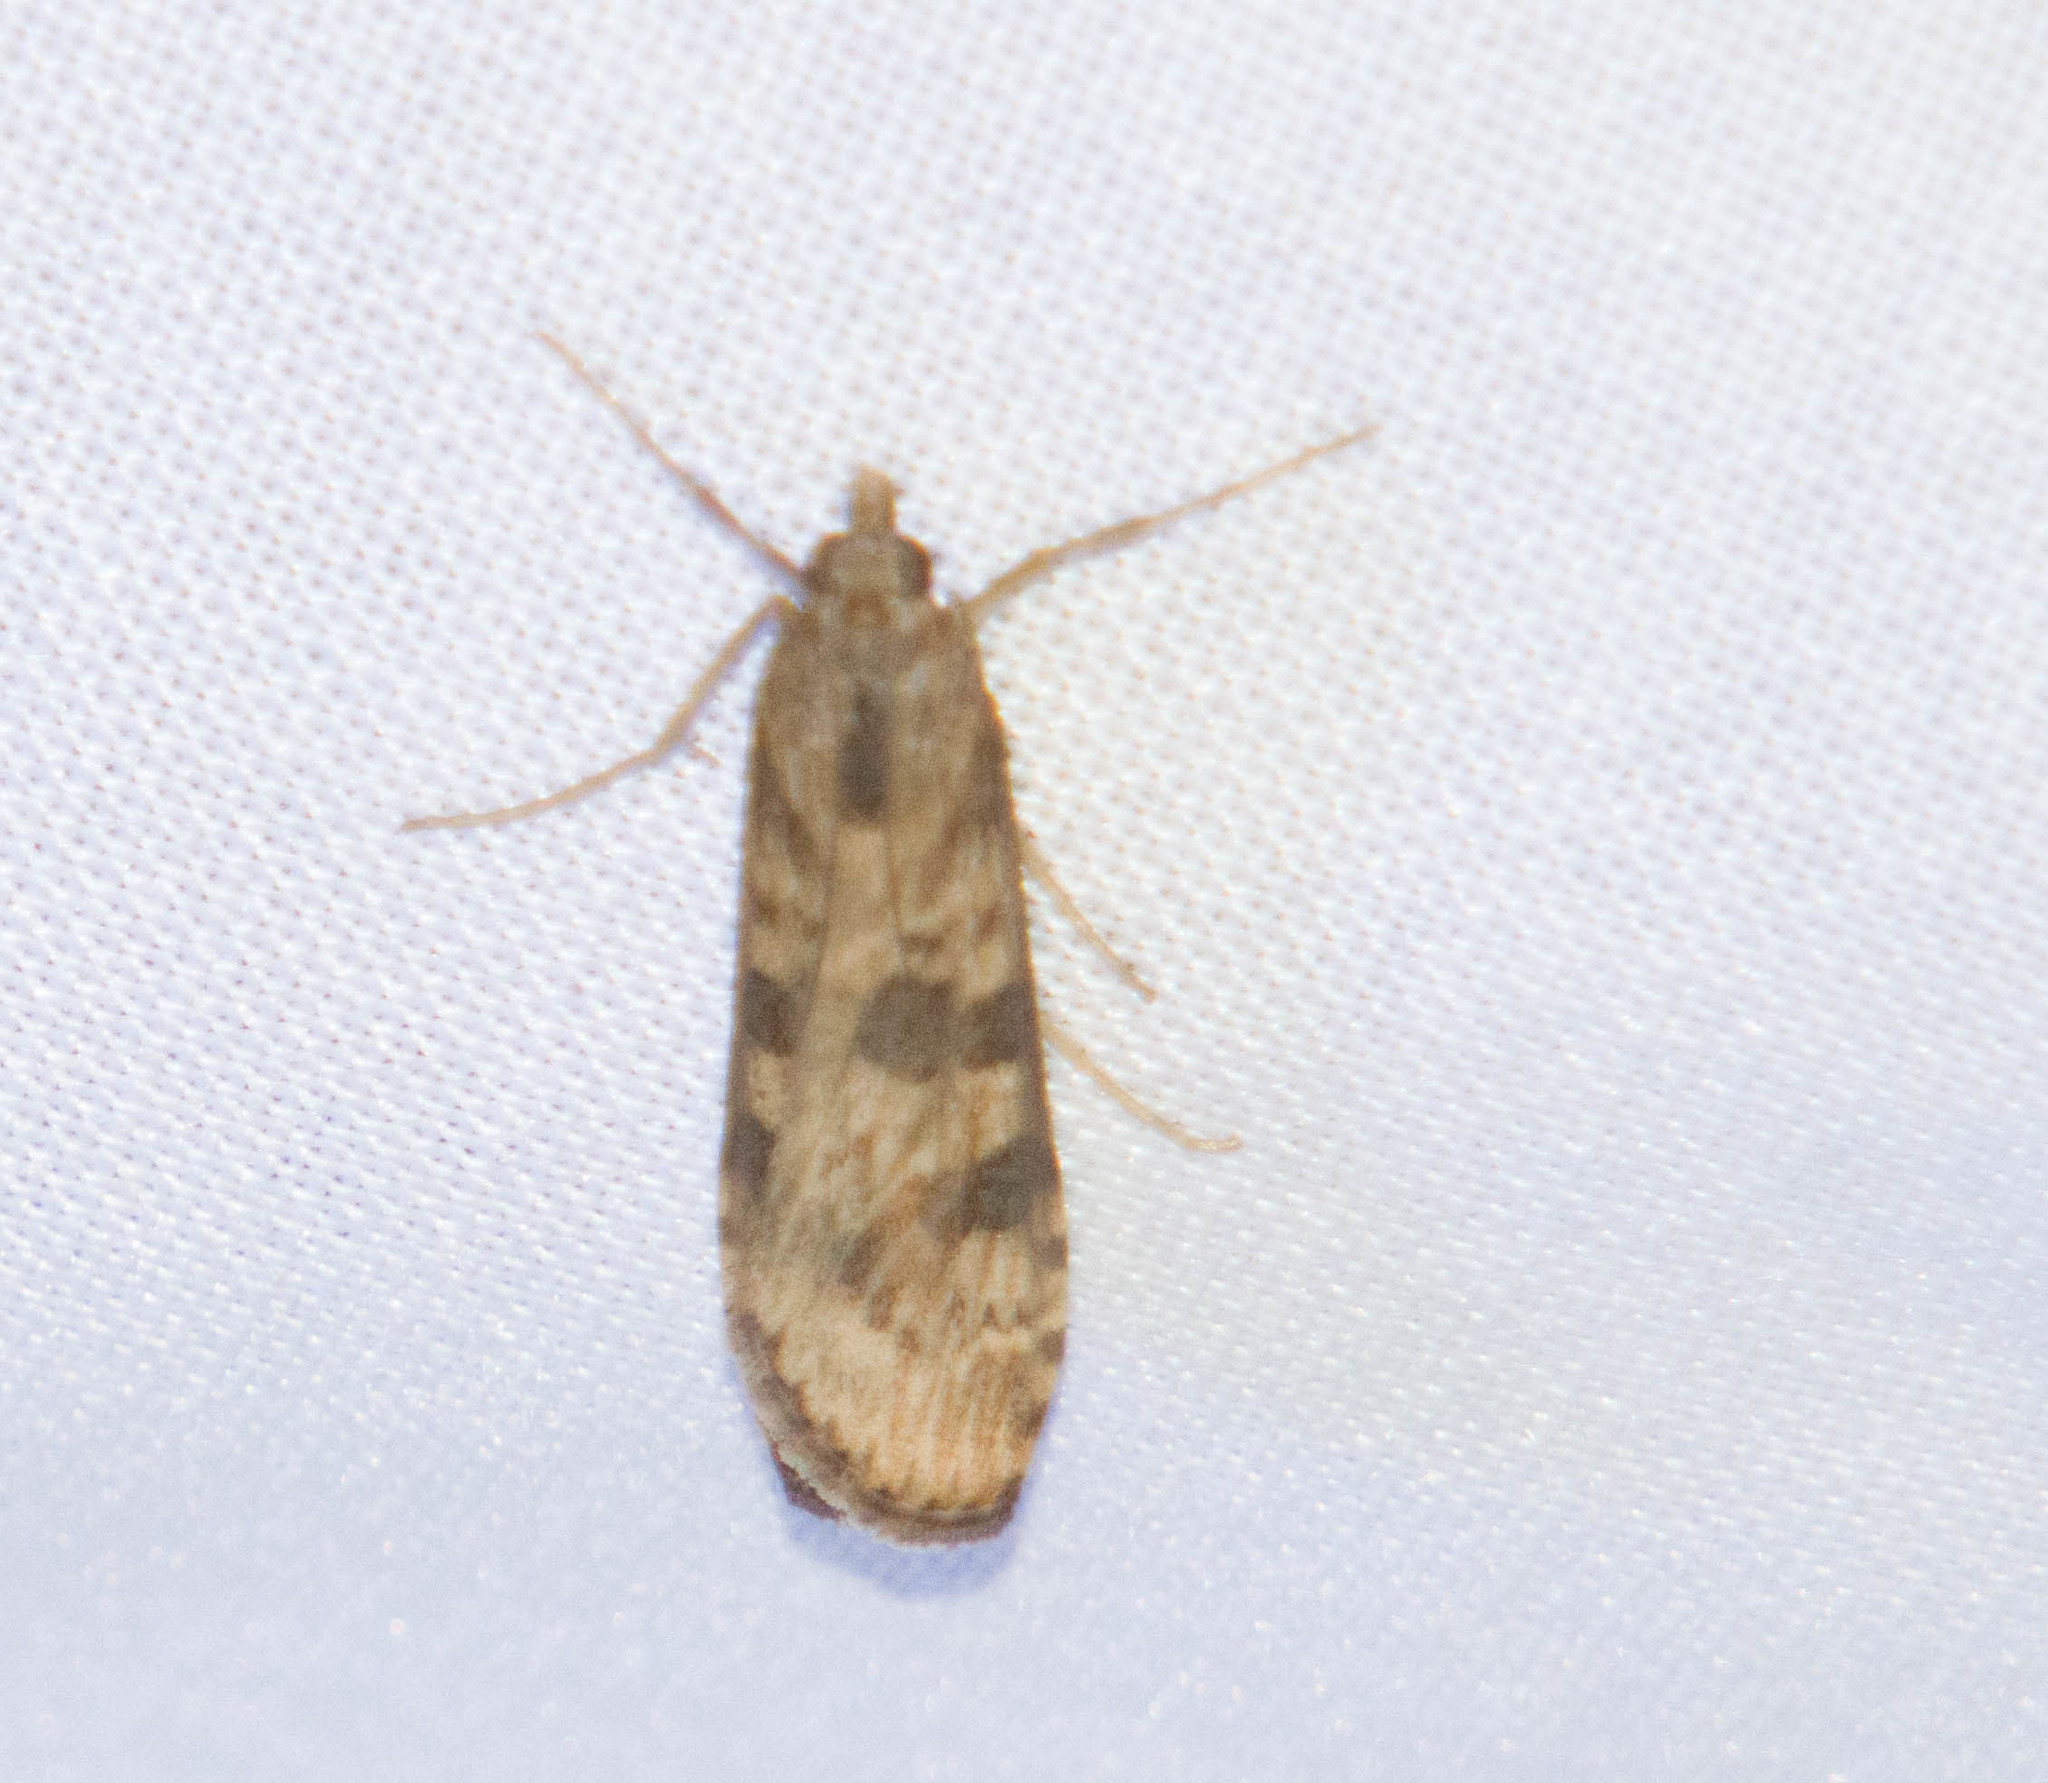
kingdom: Animalia
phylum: Arthropoda
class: Insecta
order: Lepidoptera
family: Crambidae
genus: Nomophila
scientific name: Nomophila nearctica
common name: American rush veneer
